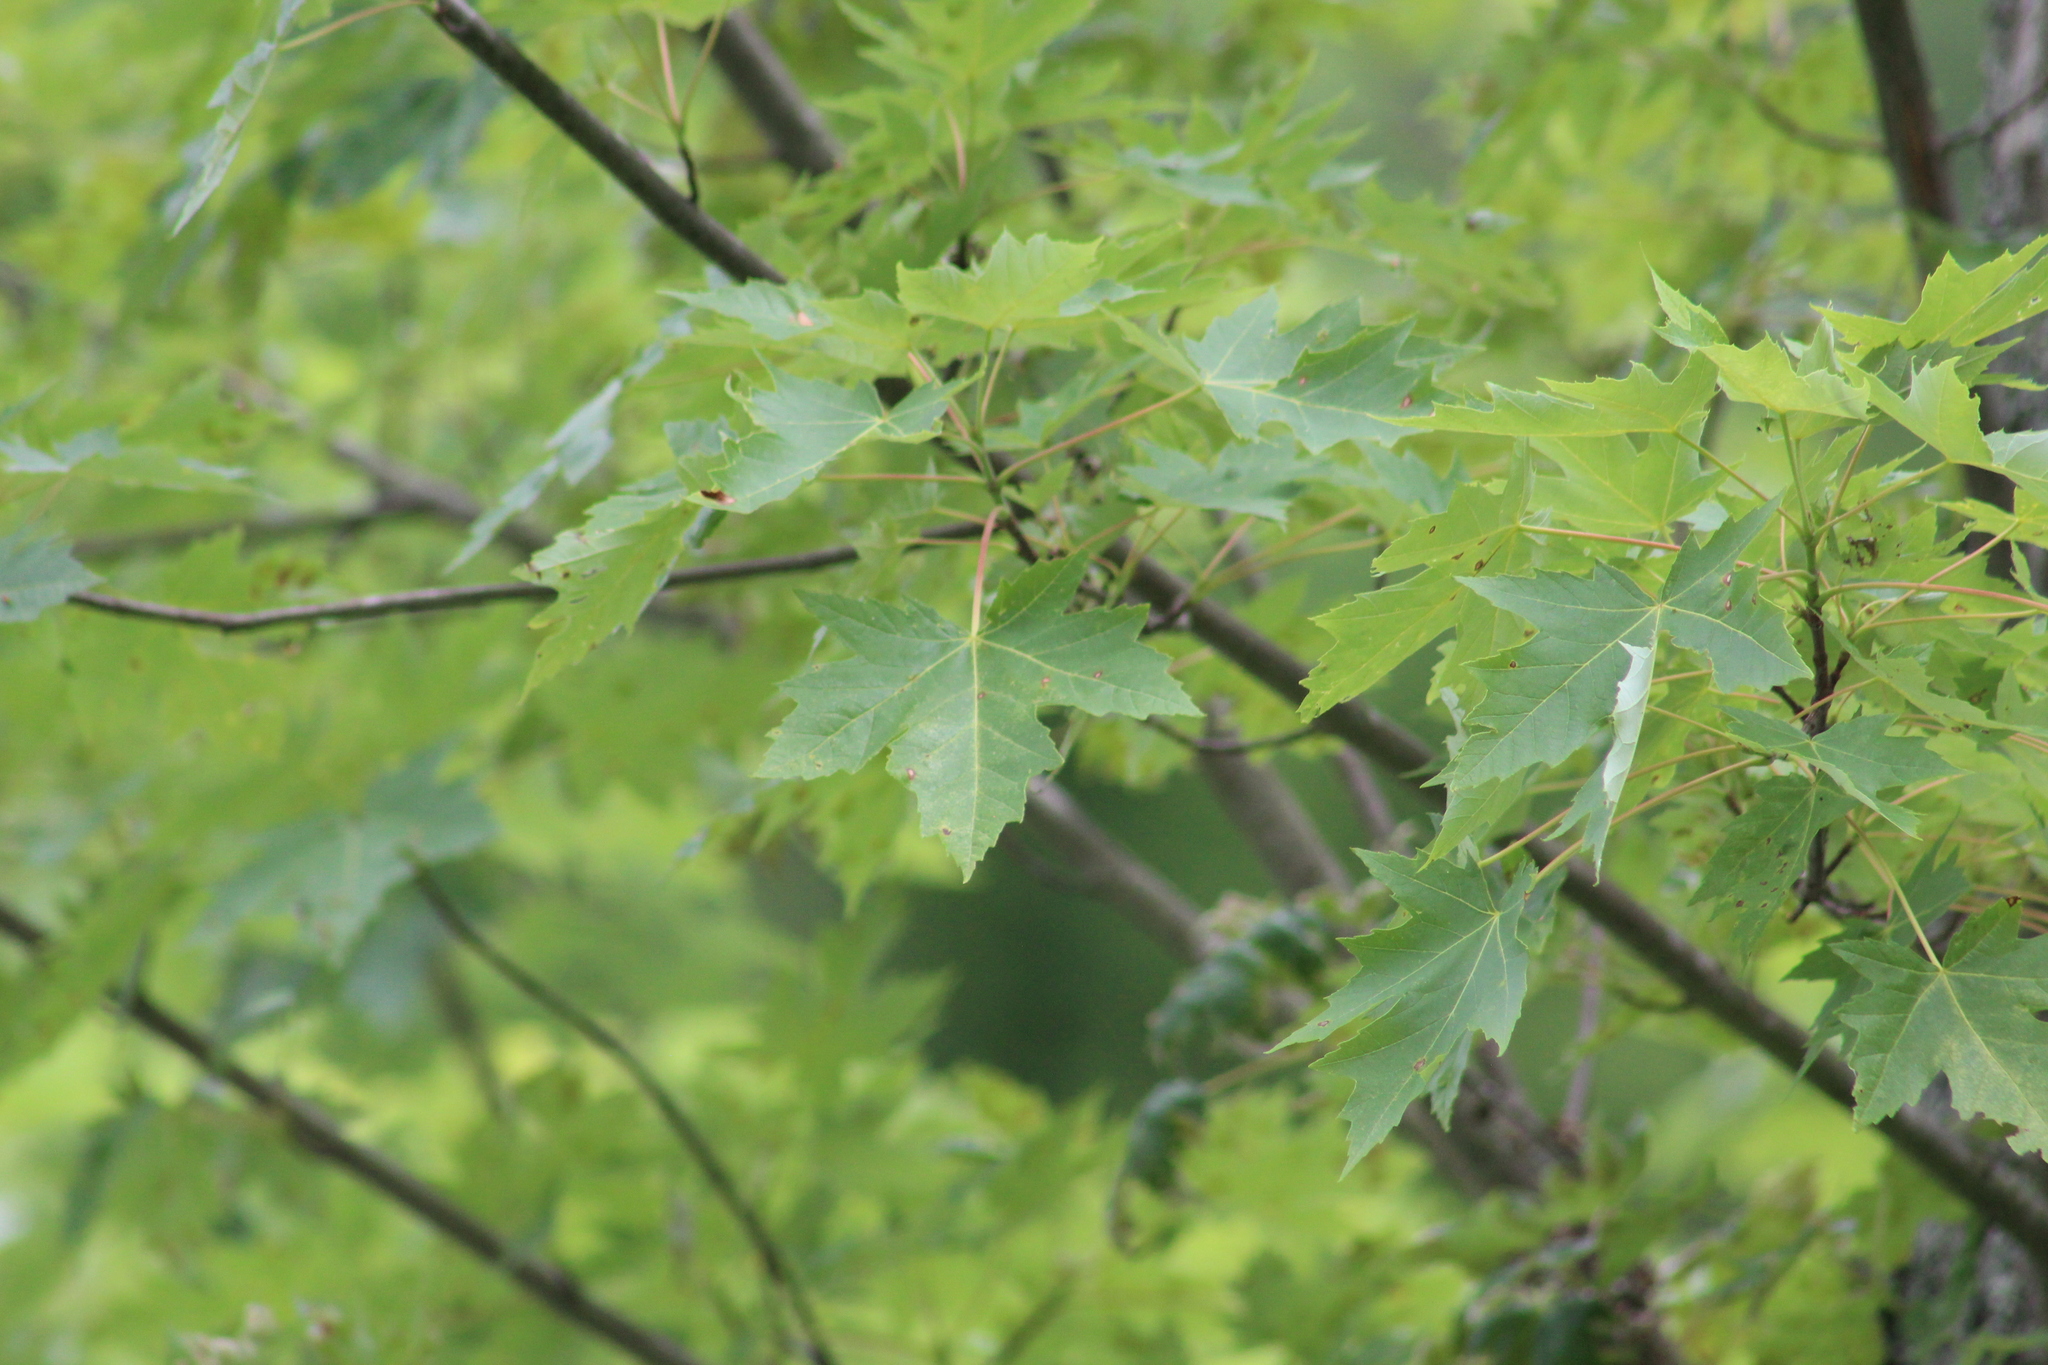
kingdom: Plantae
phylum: Tracheophyta
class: Magnoliopsida
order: Sapindales
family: Sapindaceae
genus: Acer
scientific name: Acer saccharinum
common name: Silver maple
